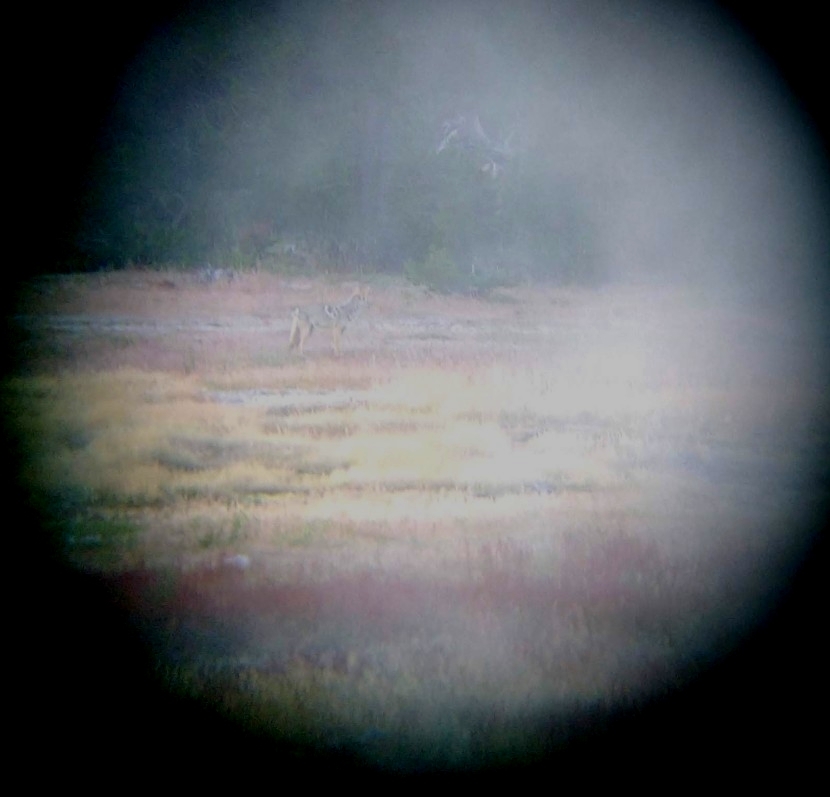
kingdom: Animalia
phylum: Chordata
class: Mammalia
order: Carnivora
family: Canidae
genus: Canis
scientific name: Canis latrans
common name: Coyote
